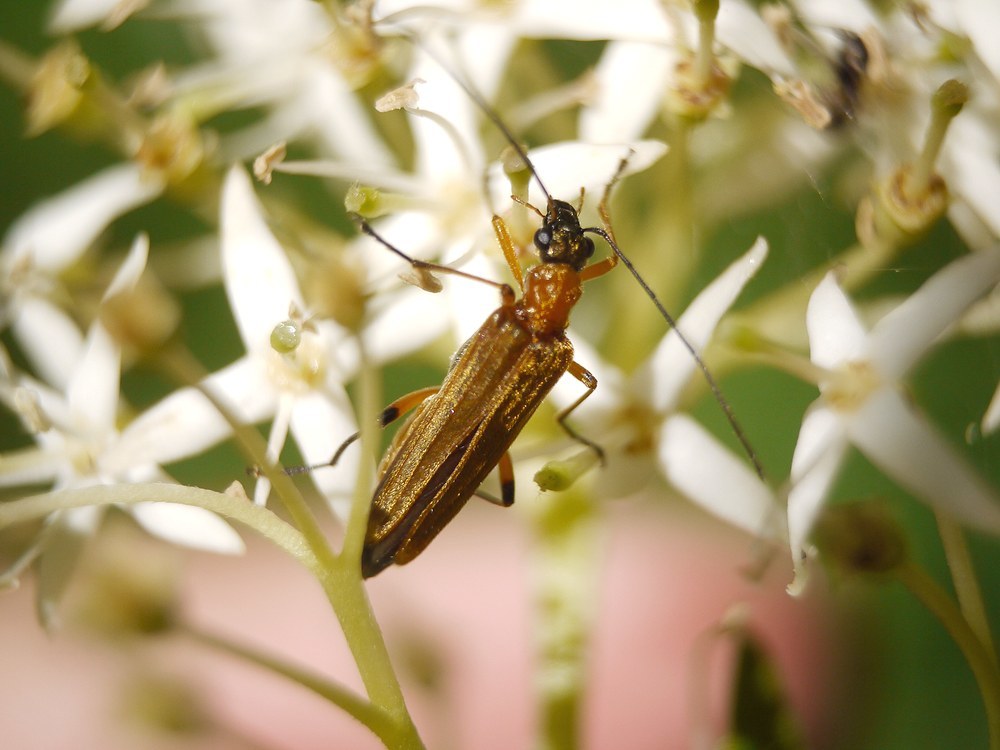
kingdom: Animalia
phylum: Arthropoda
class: Insecta
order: Coleoptera
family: Oedemeridae
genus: Oedemera
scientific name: Oedemera podagrariae
